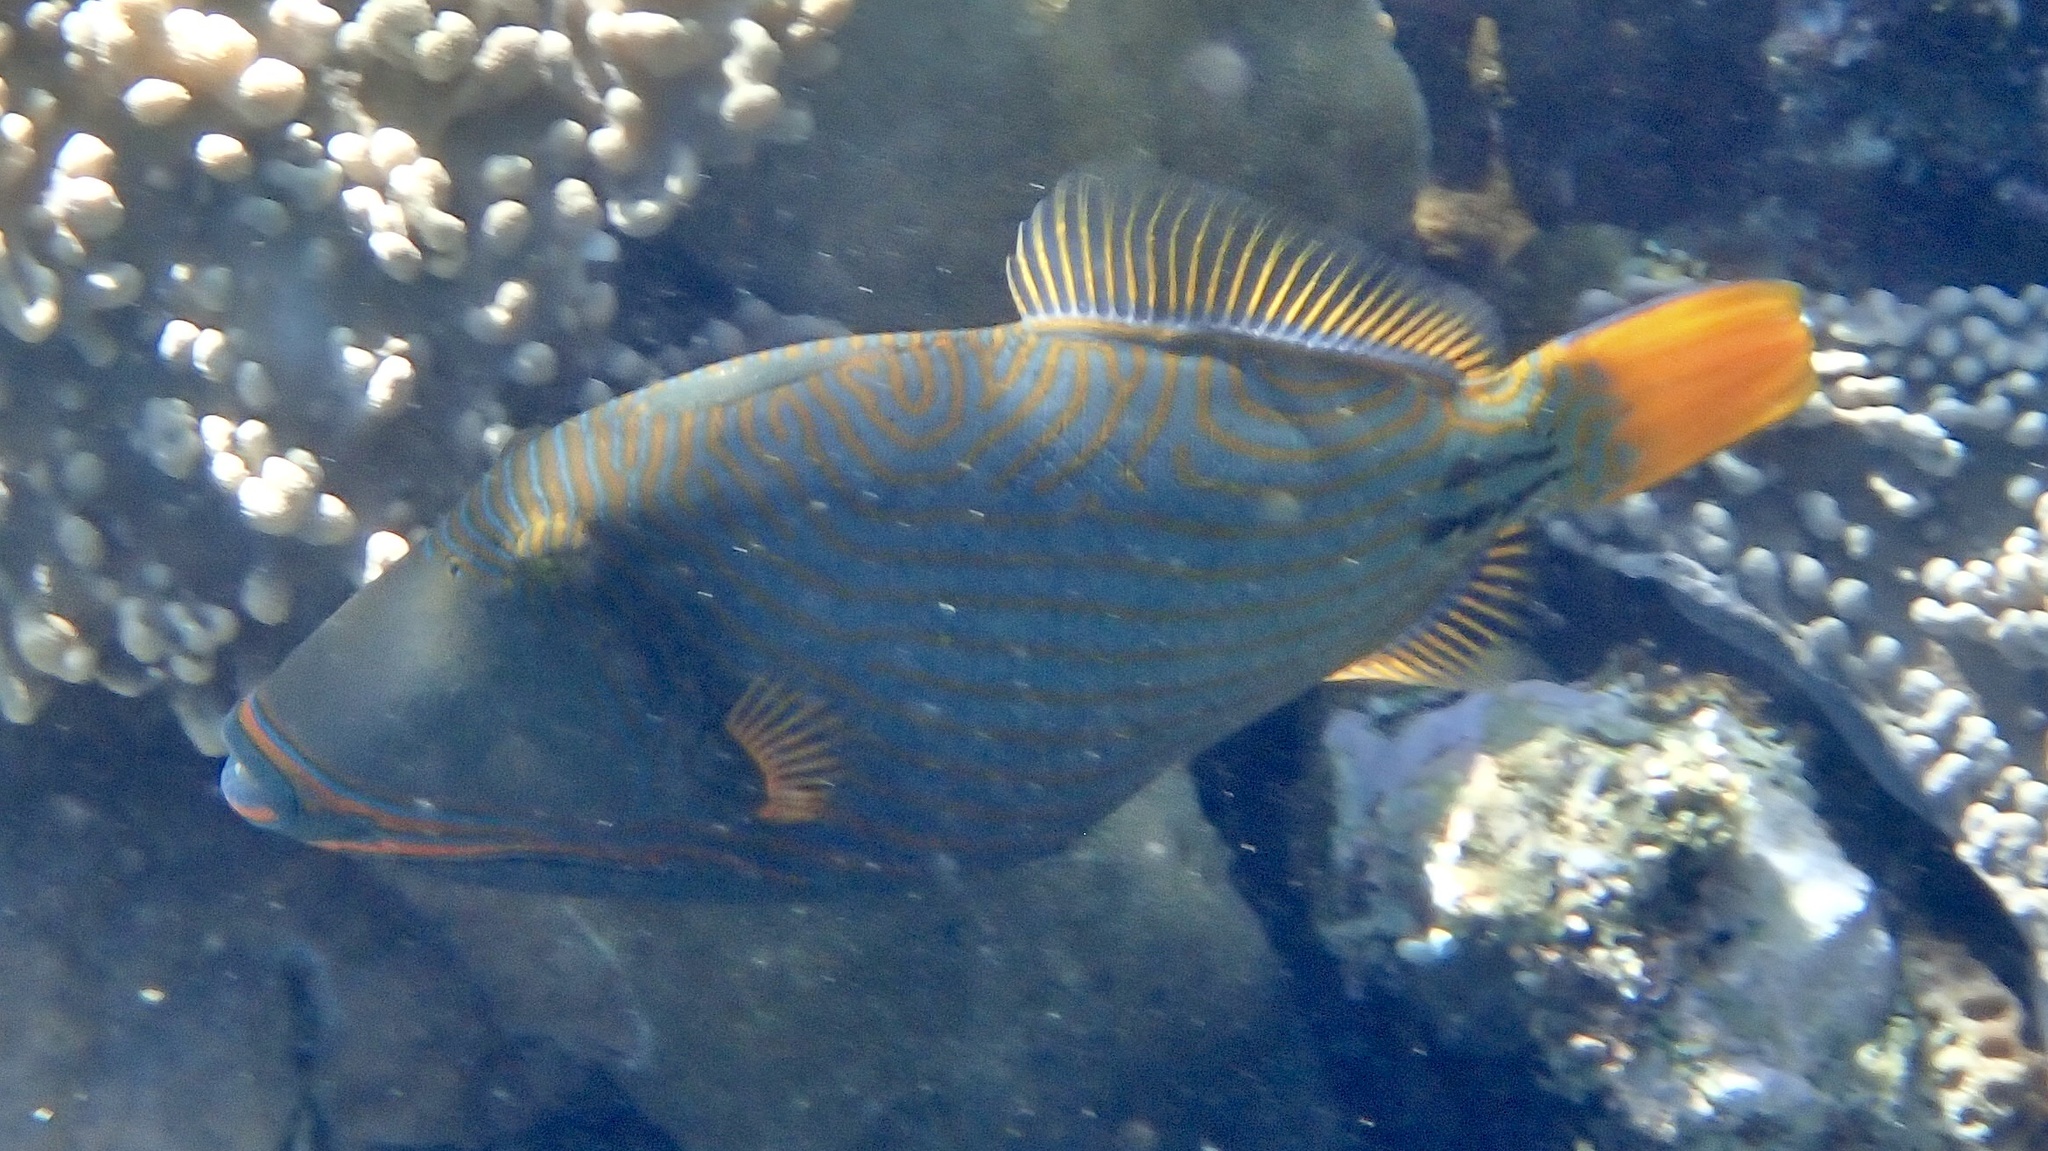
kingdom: Animalia
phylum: Chordata
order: Tetraodontiformes
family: Balistidae
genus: Balistapus
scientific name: Balistapus undulatus
